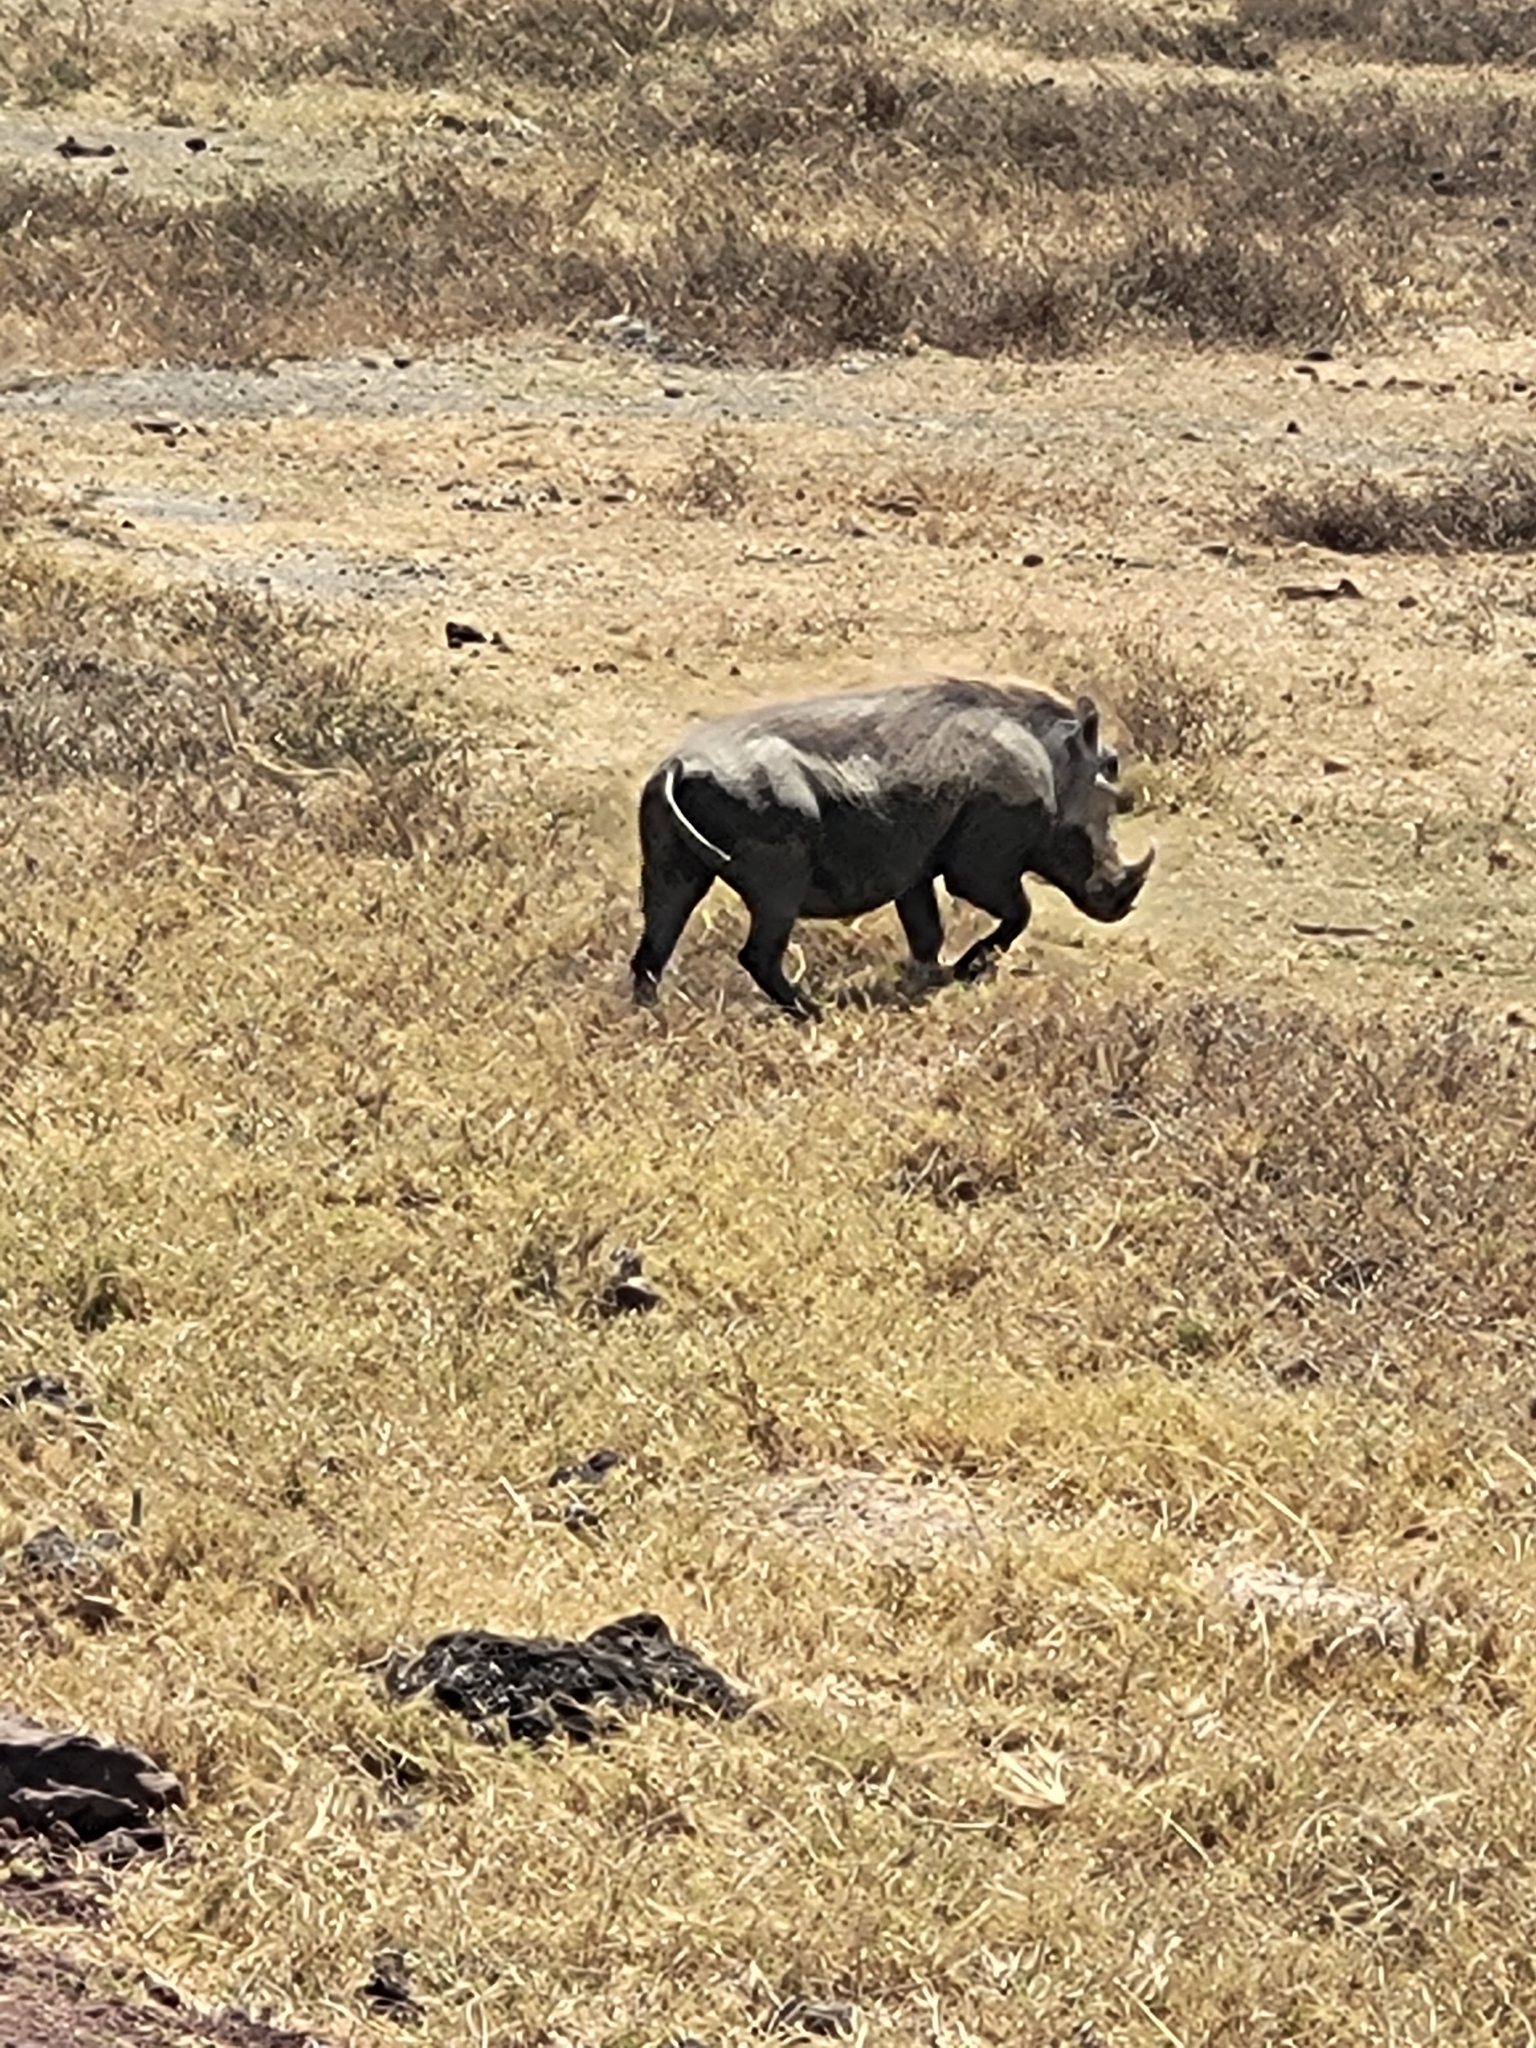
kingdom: Animalia
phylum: Chordata
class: Mammalia
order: Artiodactyla
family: Suidae
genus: Phacochoerus
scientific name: Phacochoerus africanus
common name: Common warthog
